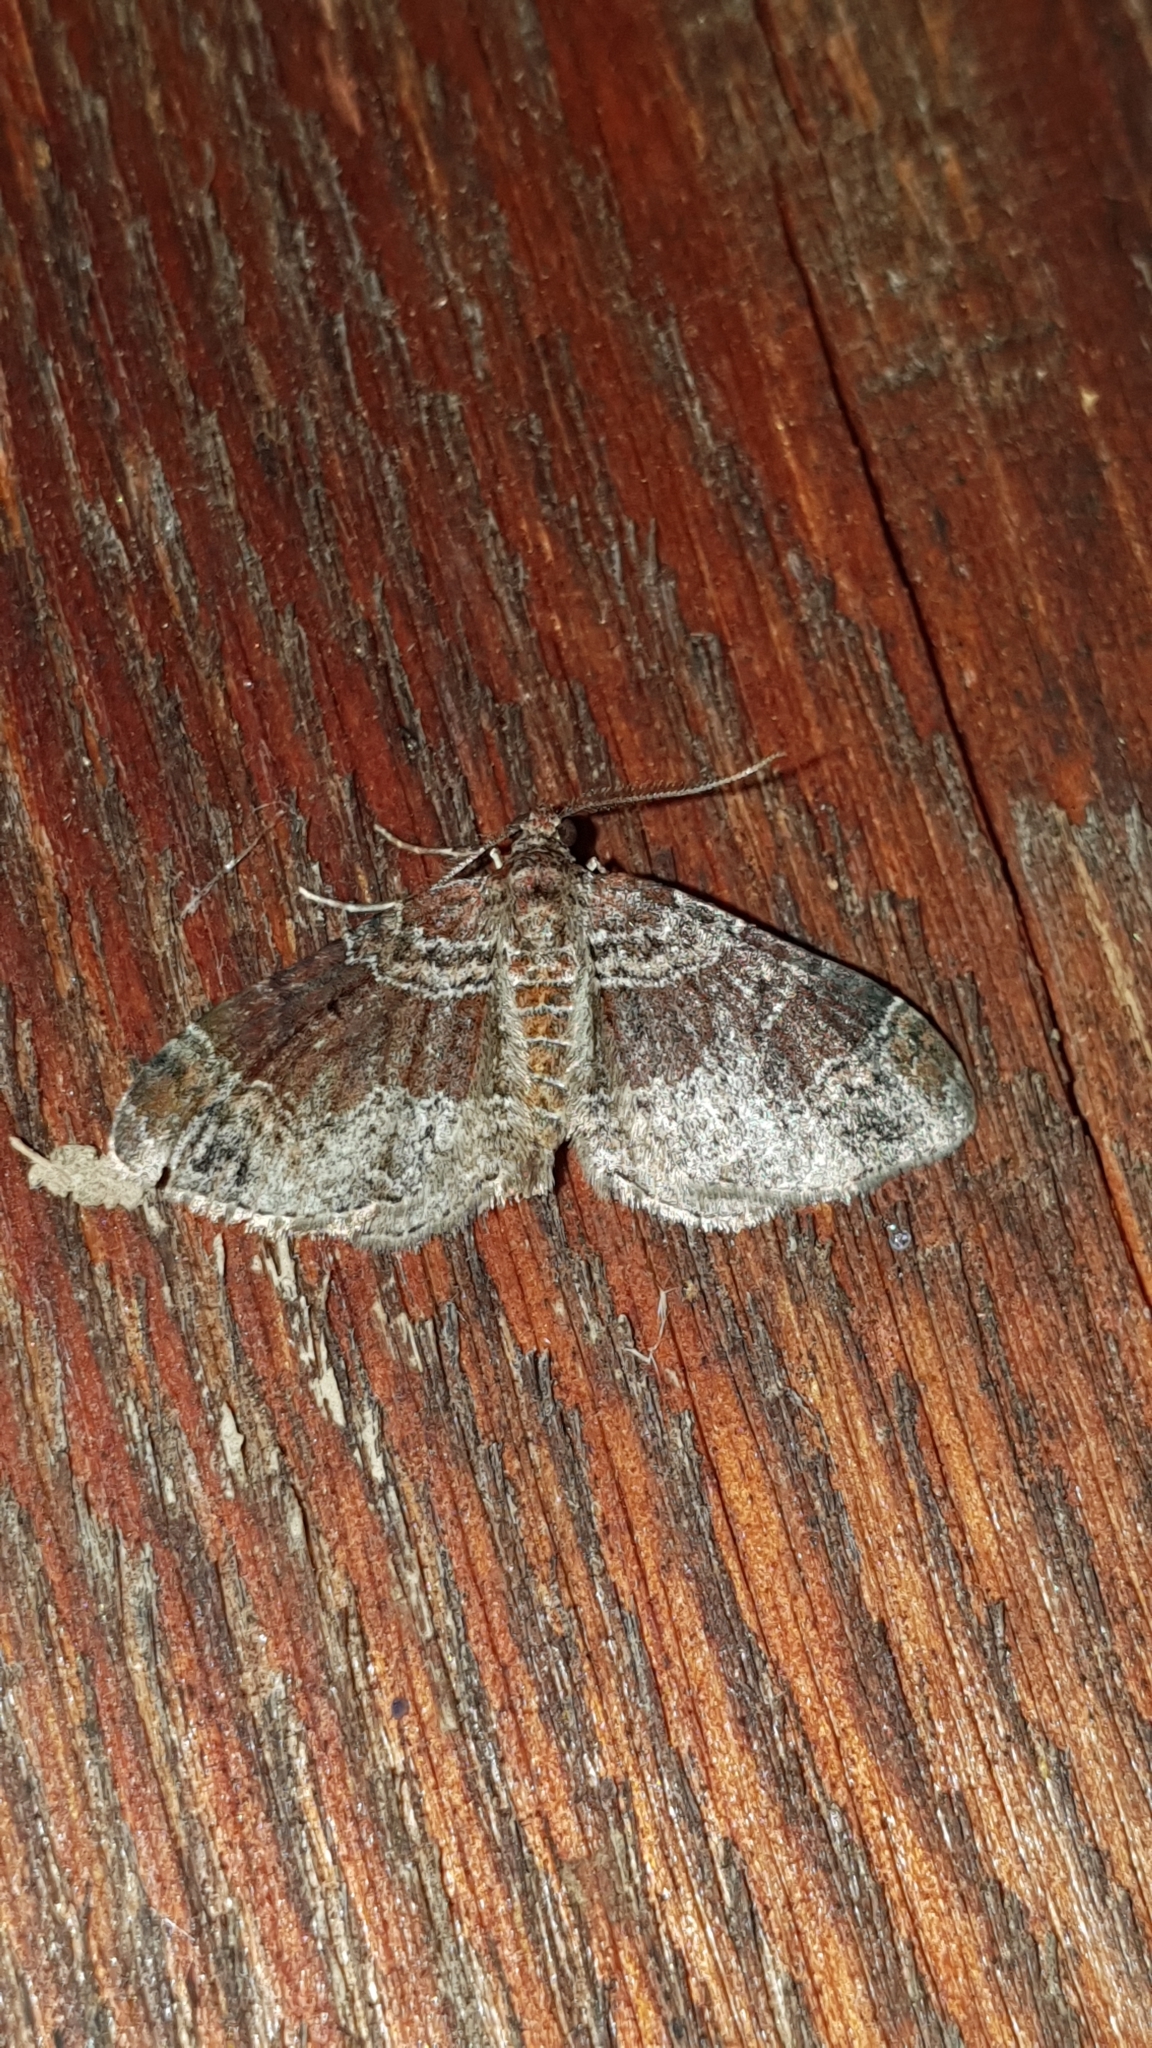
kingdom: Animalia
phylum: Arthropoda
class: Insecta
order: Lepidoptera
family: Geometridae
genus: Xanthorhoe
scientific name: Xanthorhoe ferrugata
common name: Dark-barred twin-spot carpet
